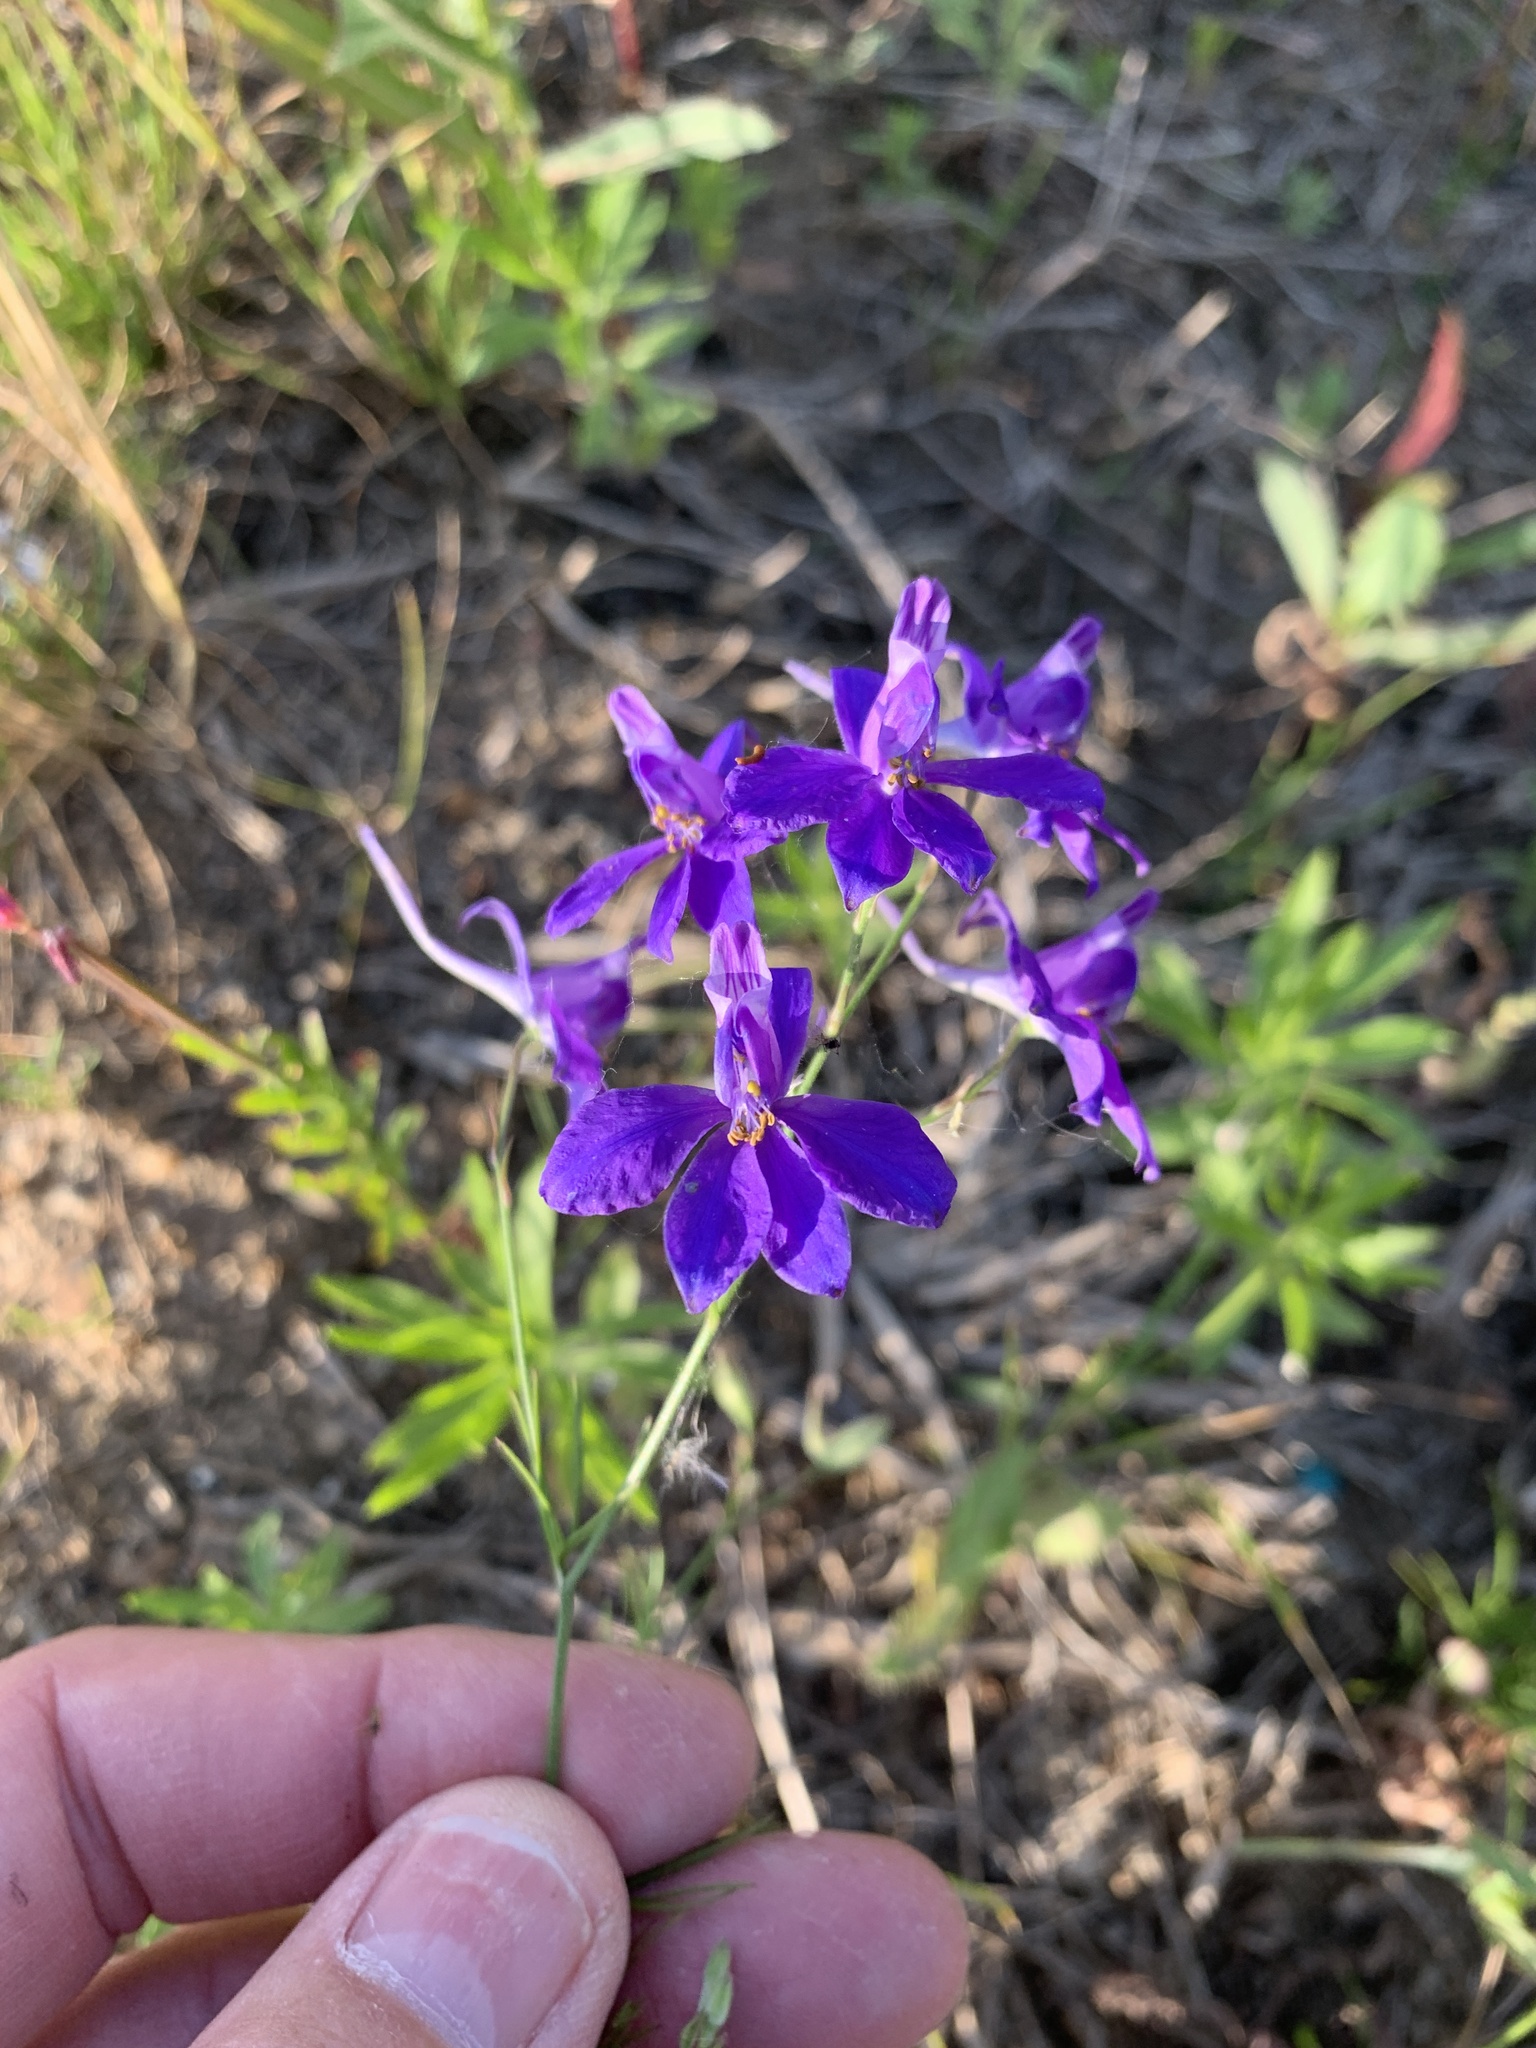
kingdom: Plantae
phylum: Tracheophyta
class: Magnoliopsida
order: Ranunculales
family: Ranunculaceae
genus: Delphinium
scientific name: Delphinium consolida
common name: Branching larkspur
